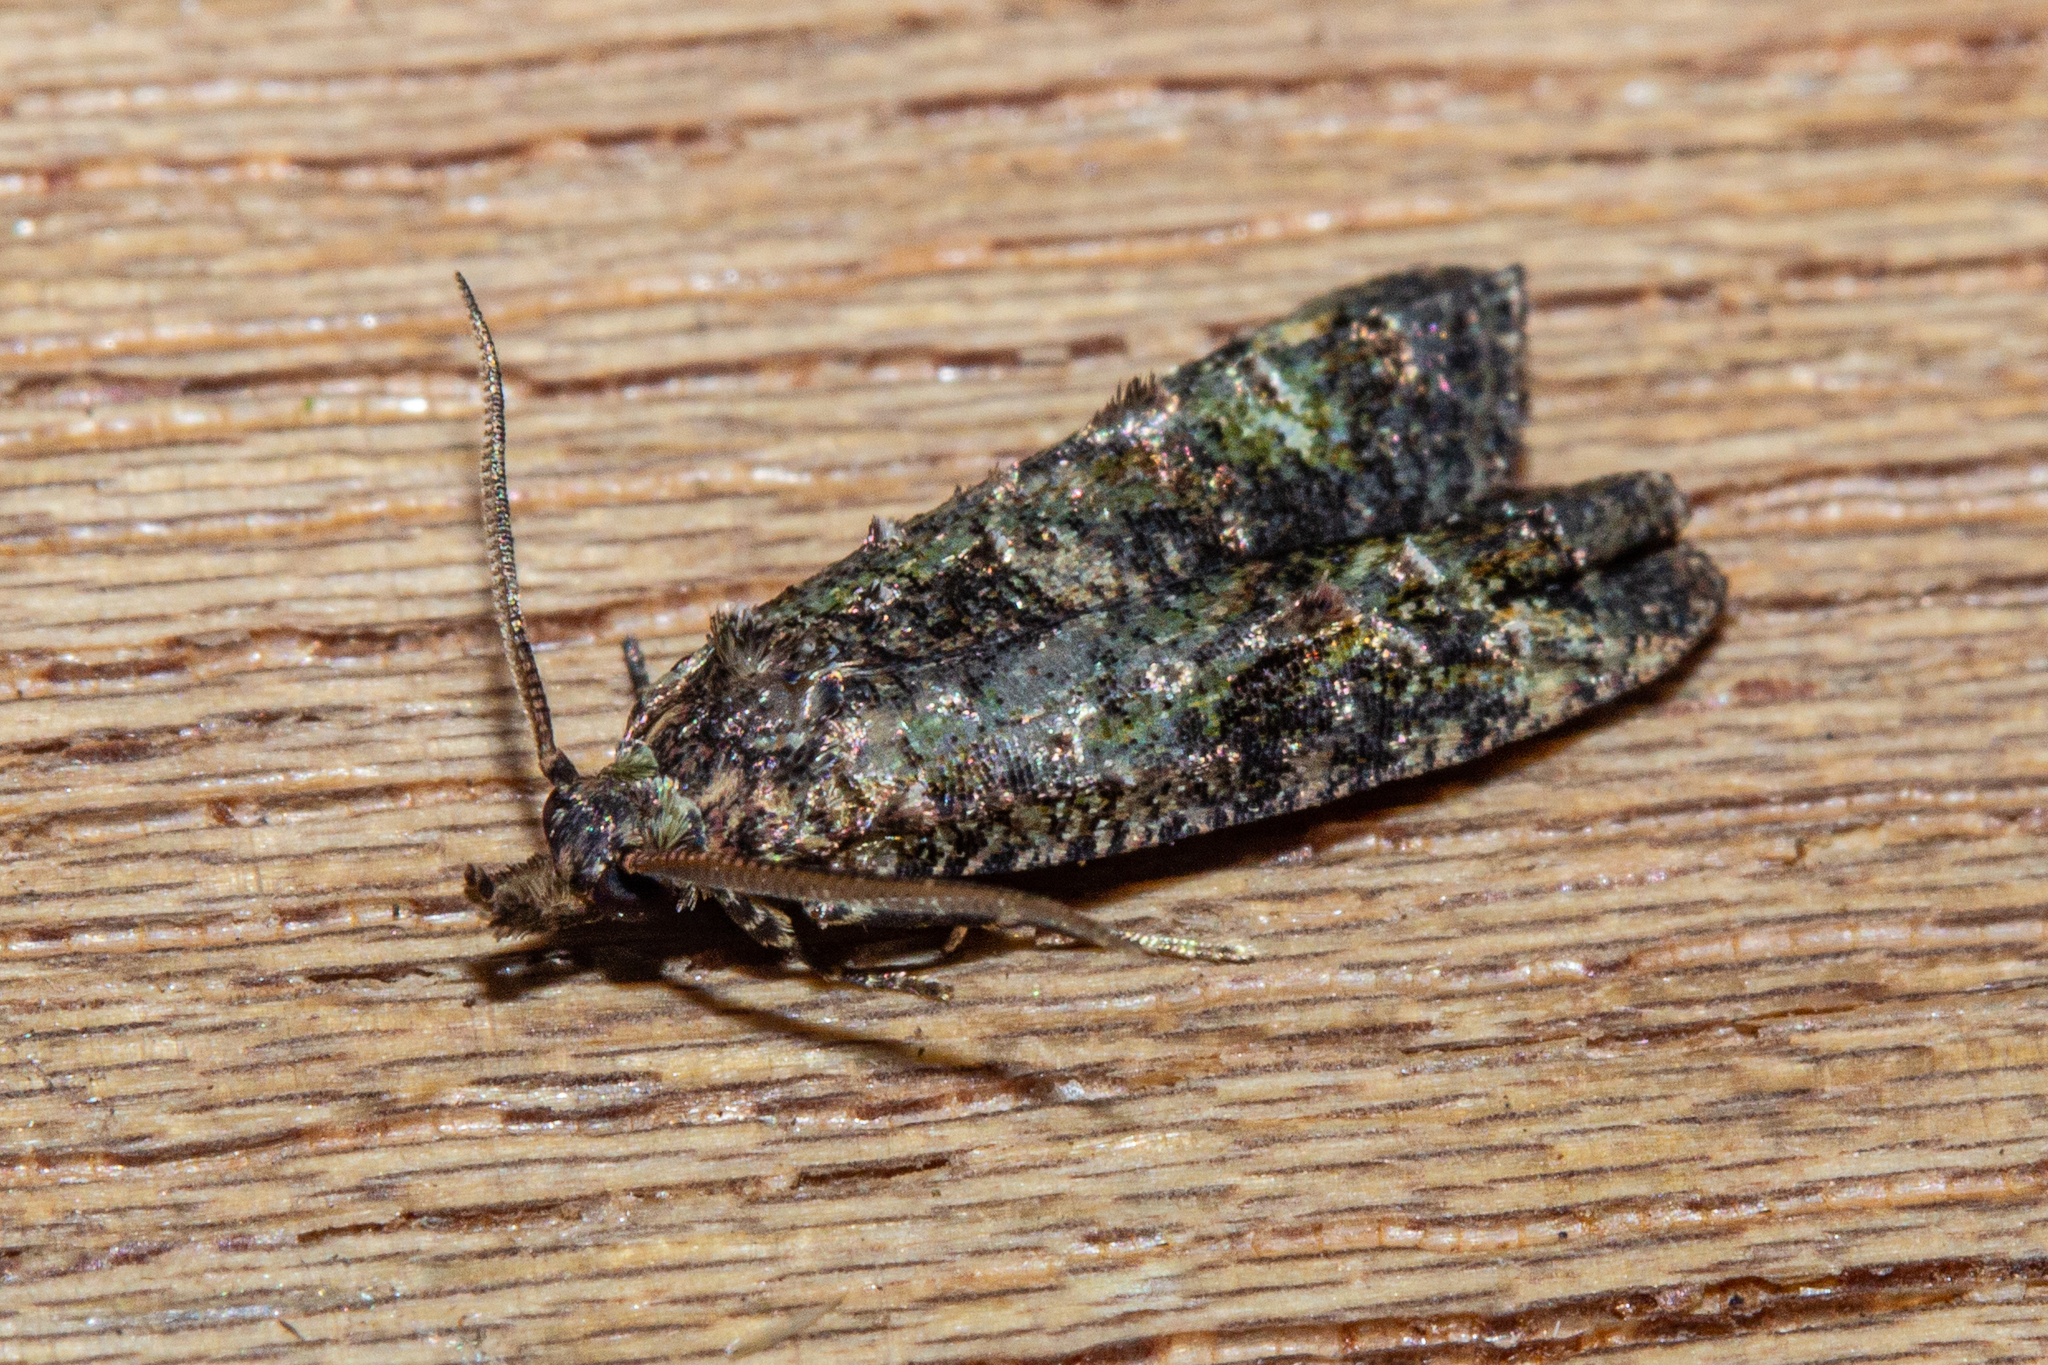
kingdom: Animalia
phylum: Arthropoda
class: Insecta
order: Lepidoptera
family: Copromorphidae
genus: Phycomorpha
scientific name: Phycomorpha metachrysa
